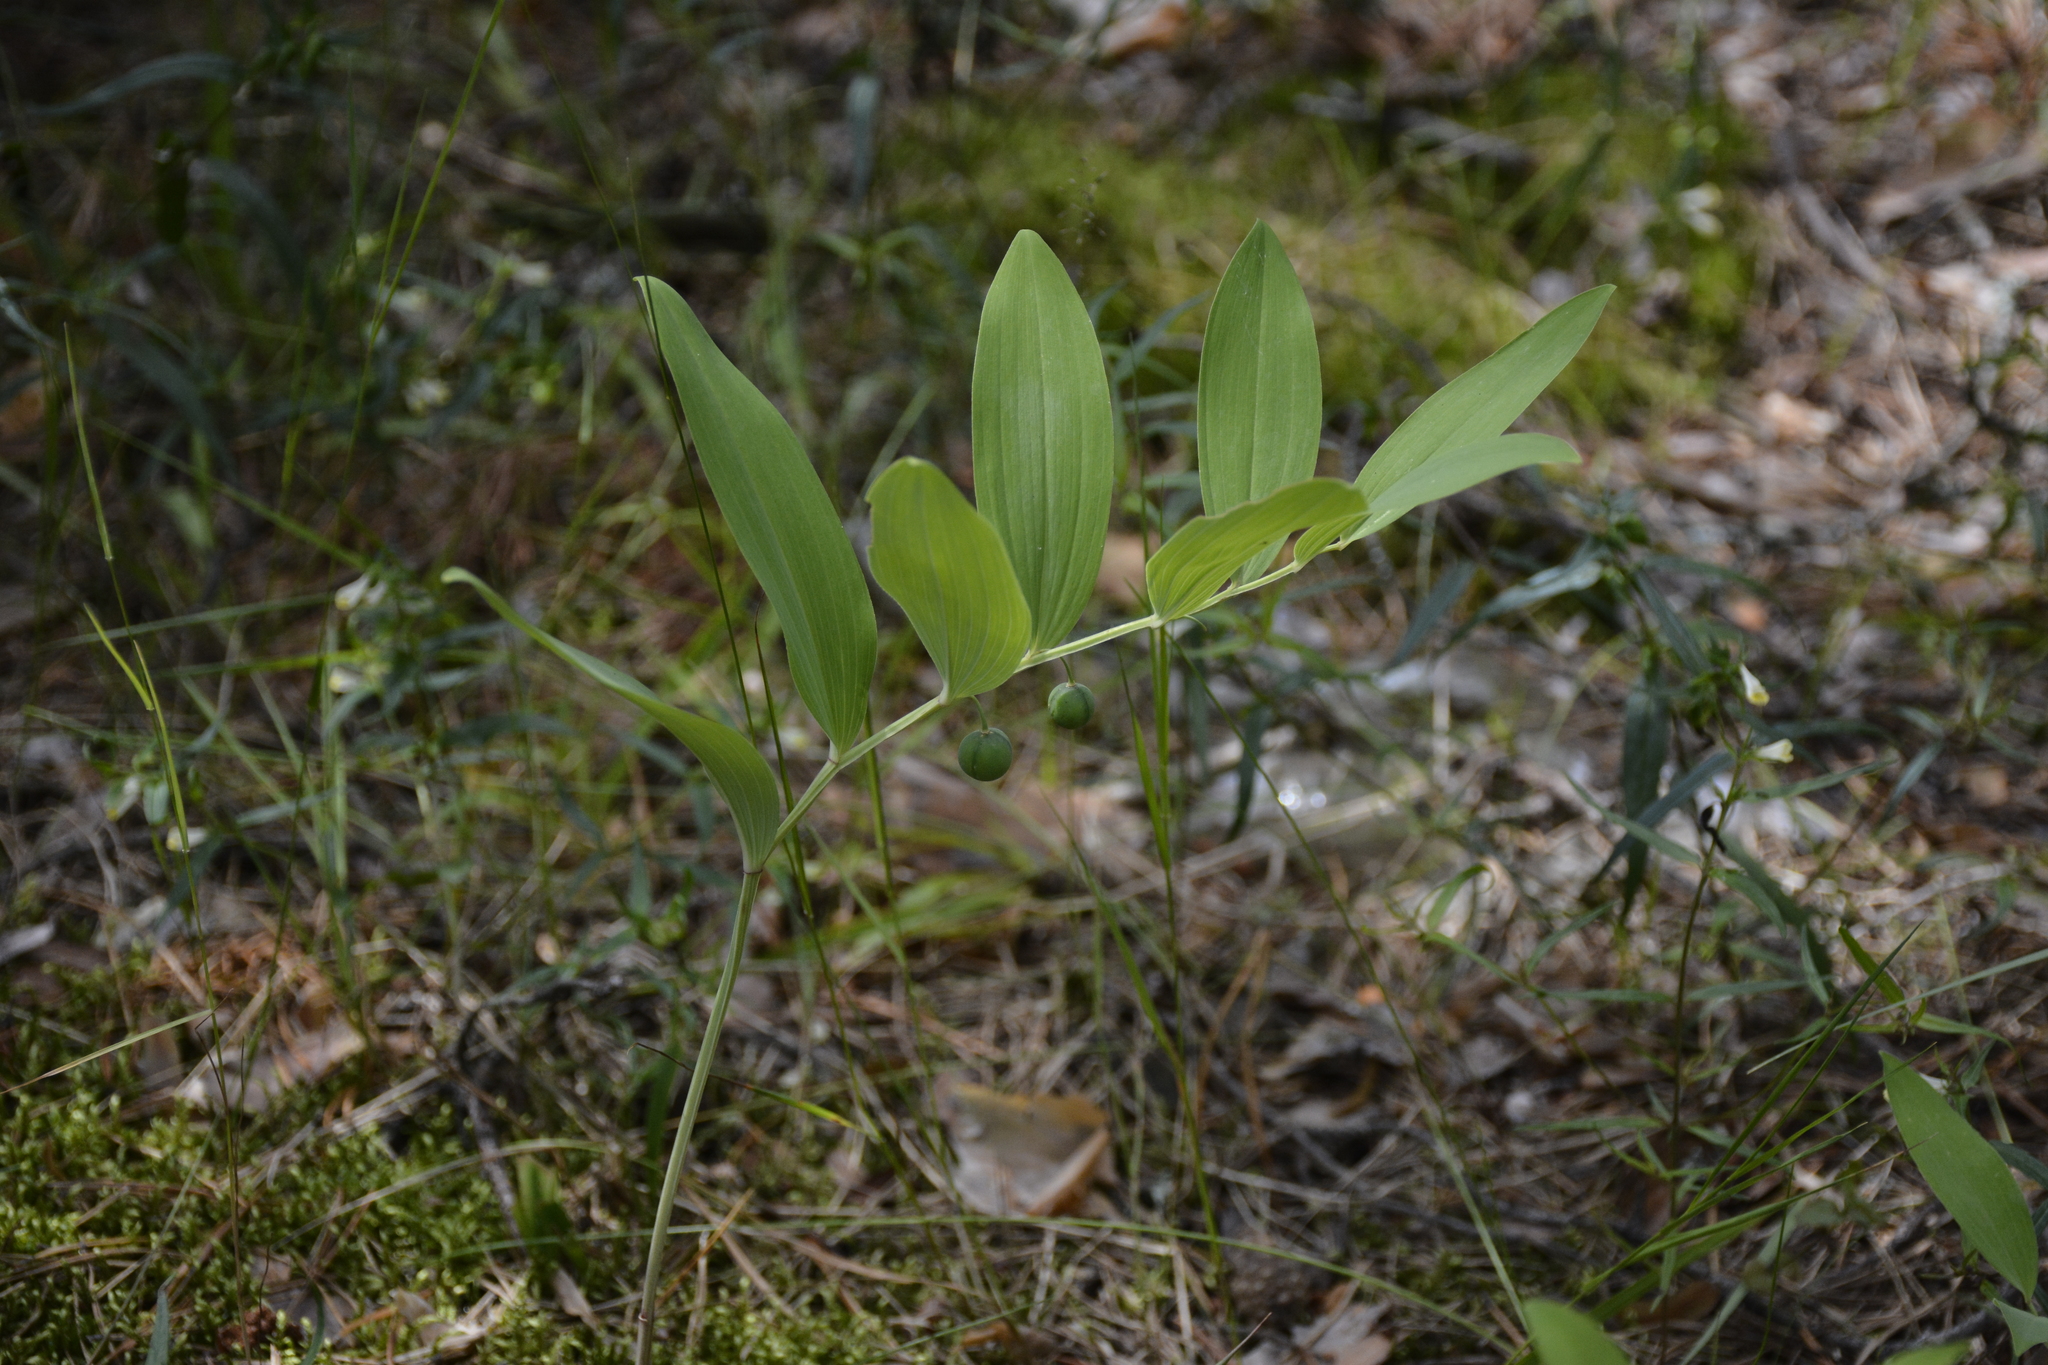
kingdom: Plantae
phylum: Tracheophyta
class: Liliopsida
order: Asparagales
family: Asparagaceae
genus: Polygonatum
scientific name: Polygonatum odoratum
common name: Angular solomon's-seal
